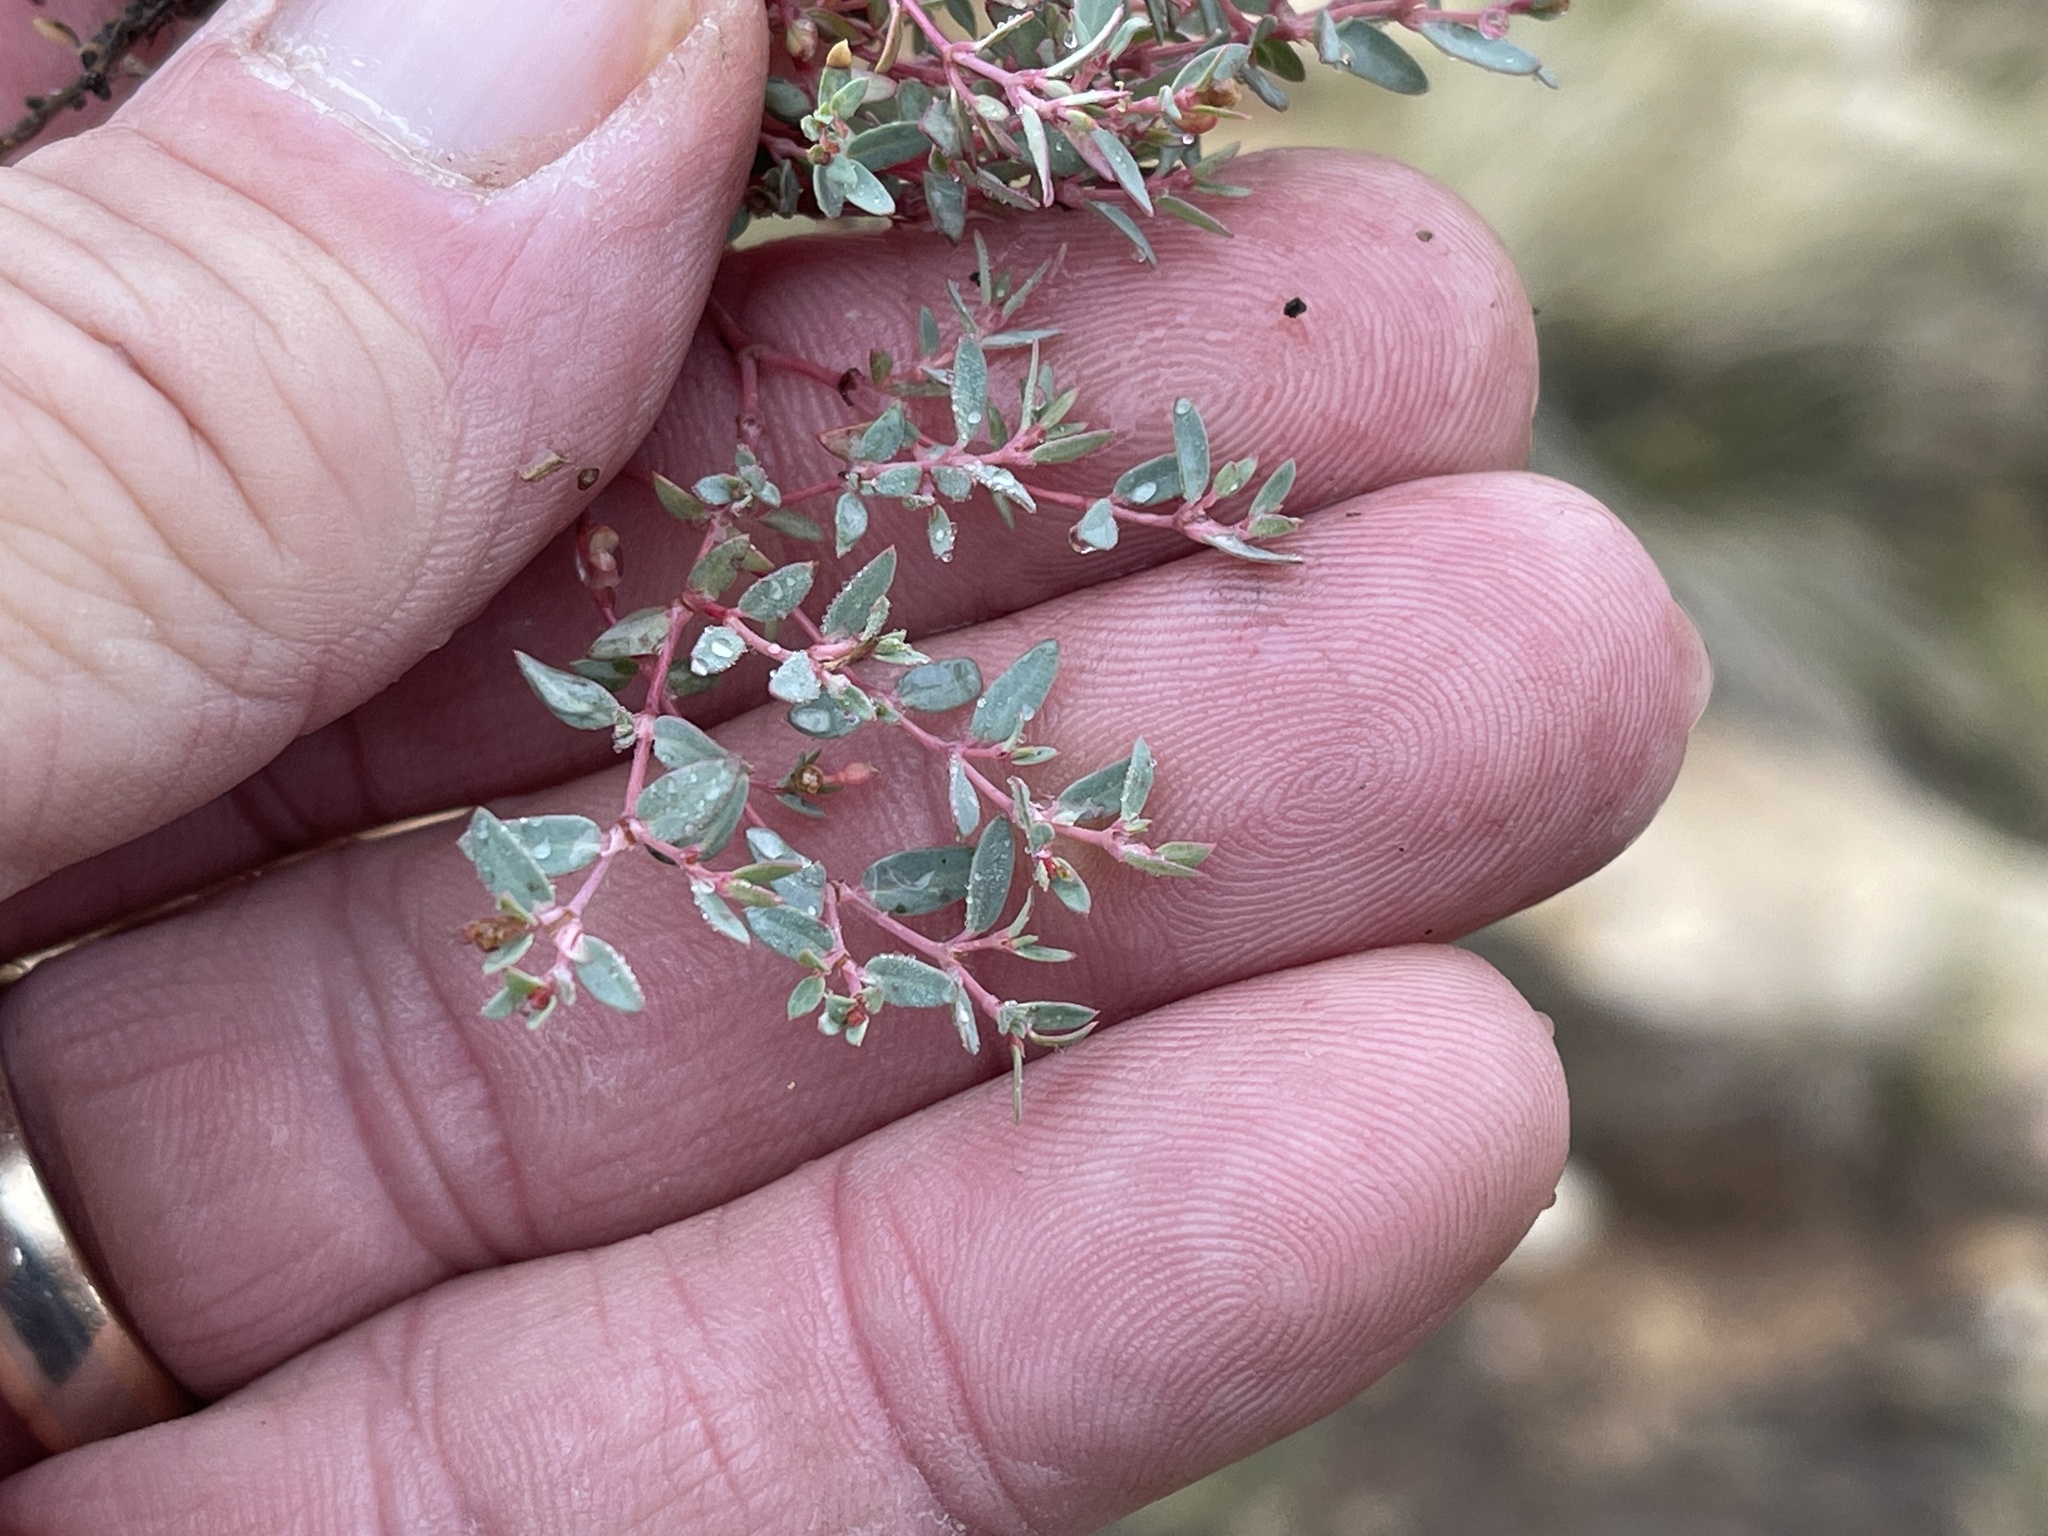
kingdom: Plantae
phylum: Tracheophyta
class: Magnoliopsida
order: Malpighiales
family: Euphorbiaceae
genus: Euphorbia
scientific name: Euphorbia fendleri
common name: Fendler's euphorbia
